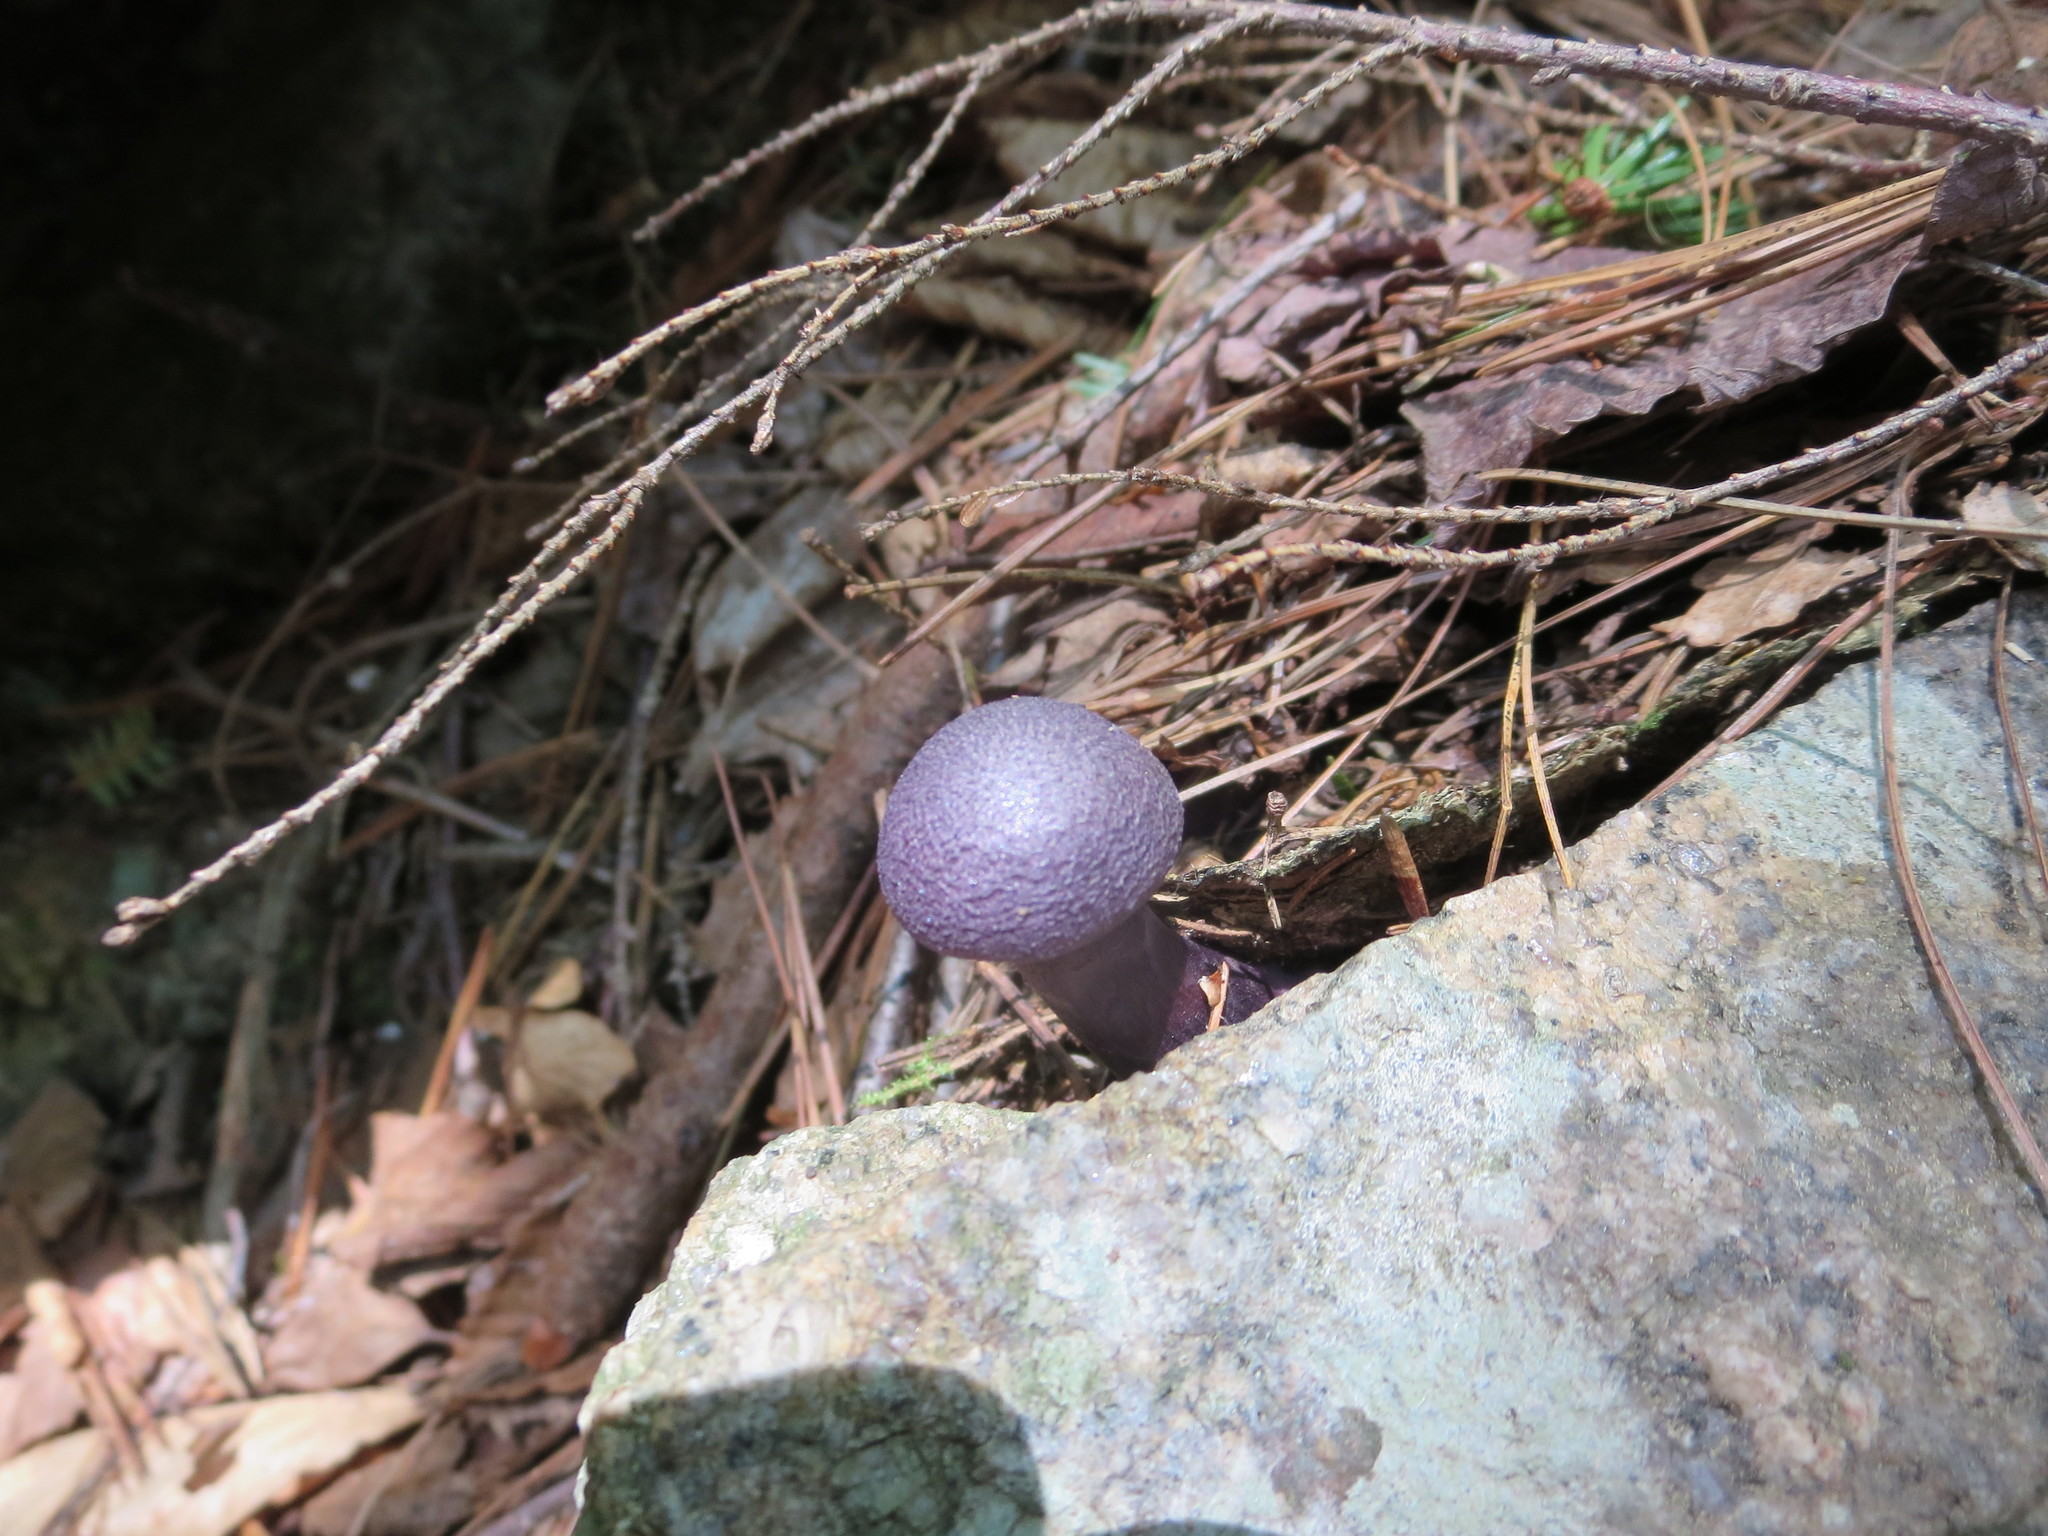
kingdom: Fungi
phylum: Basidiomycota
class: Agaricomycetes
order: Agaricales
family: Cortinariaceae
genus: Cortinarius
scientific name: Cortinarius violaceus
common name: Violet webcap
